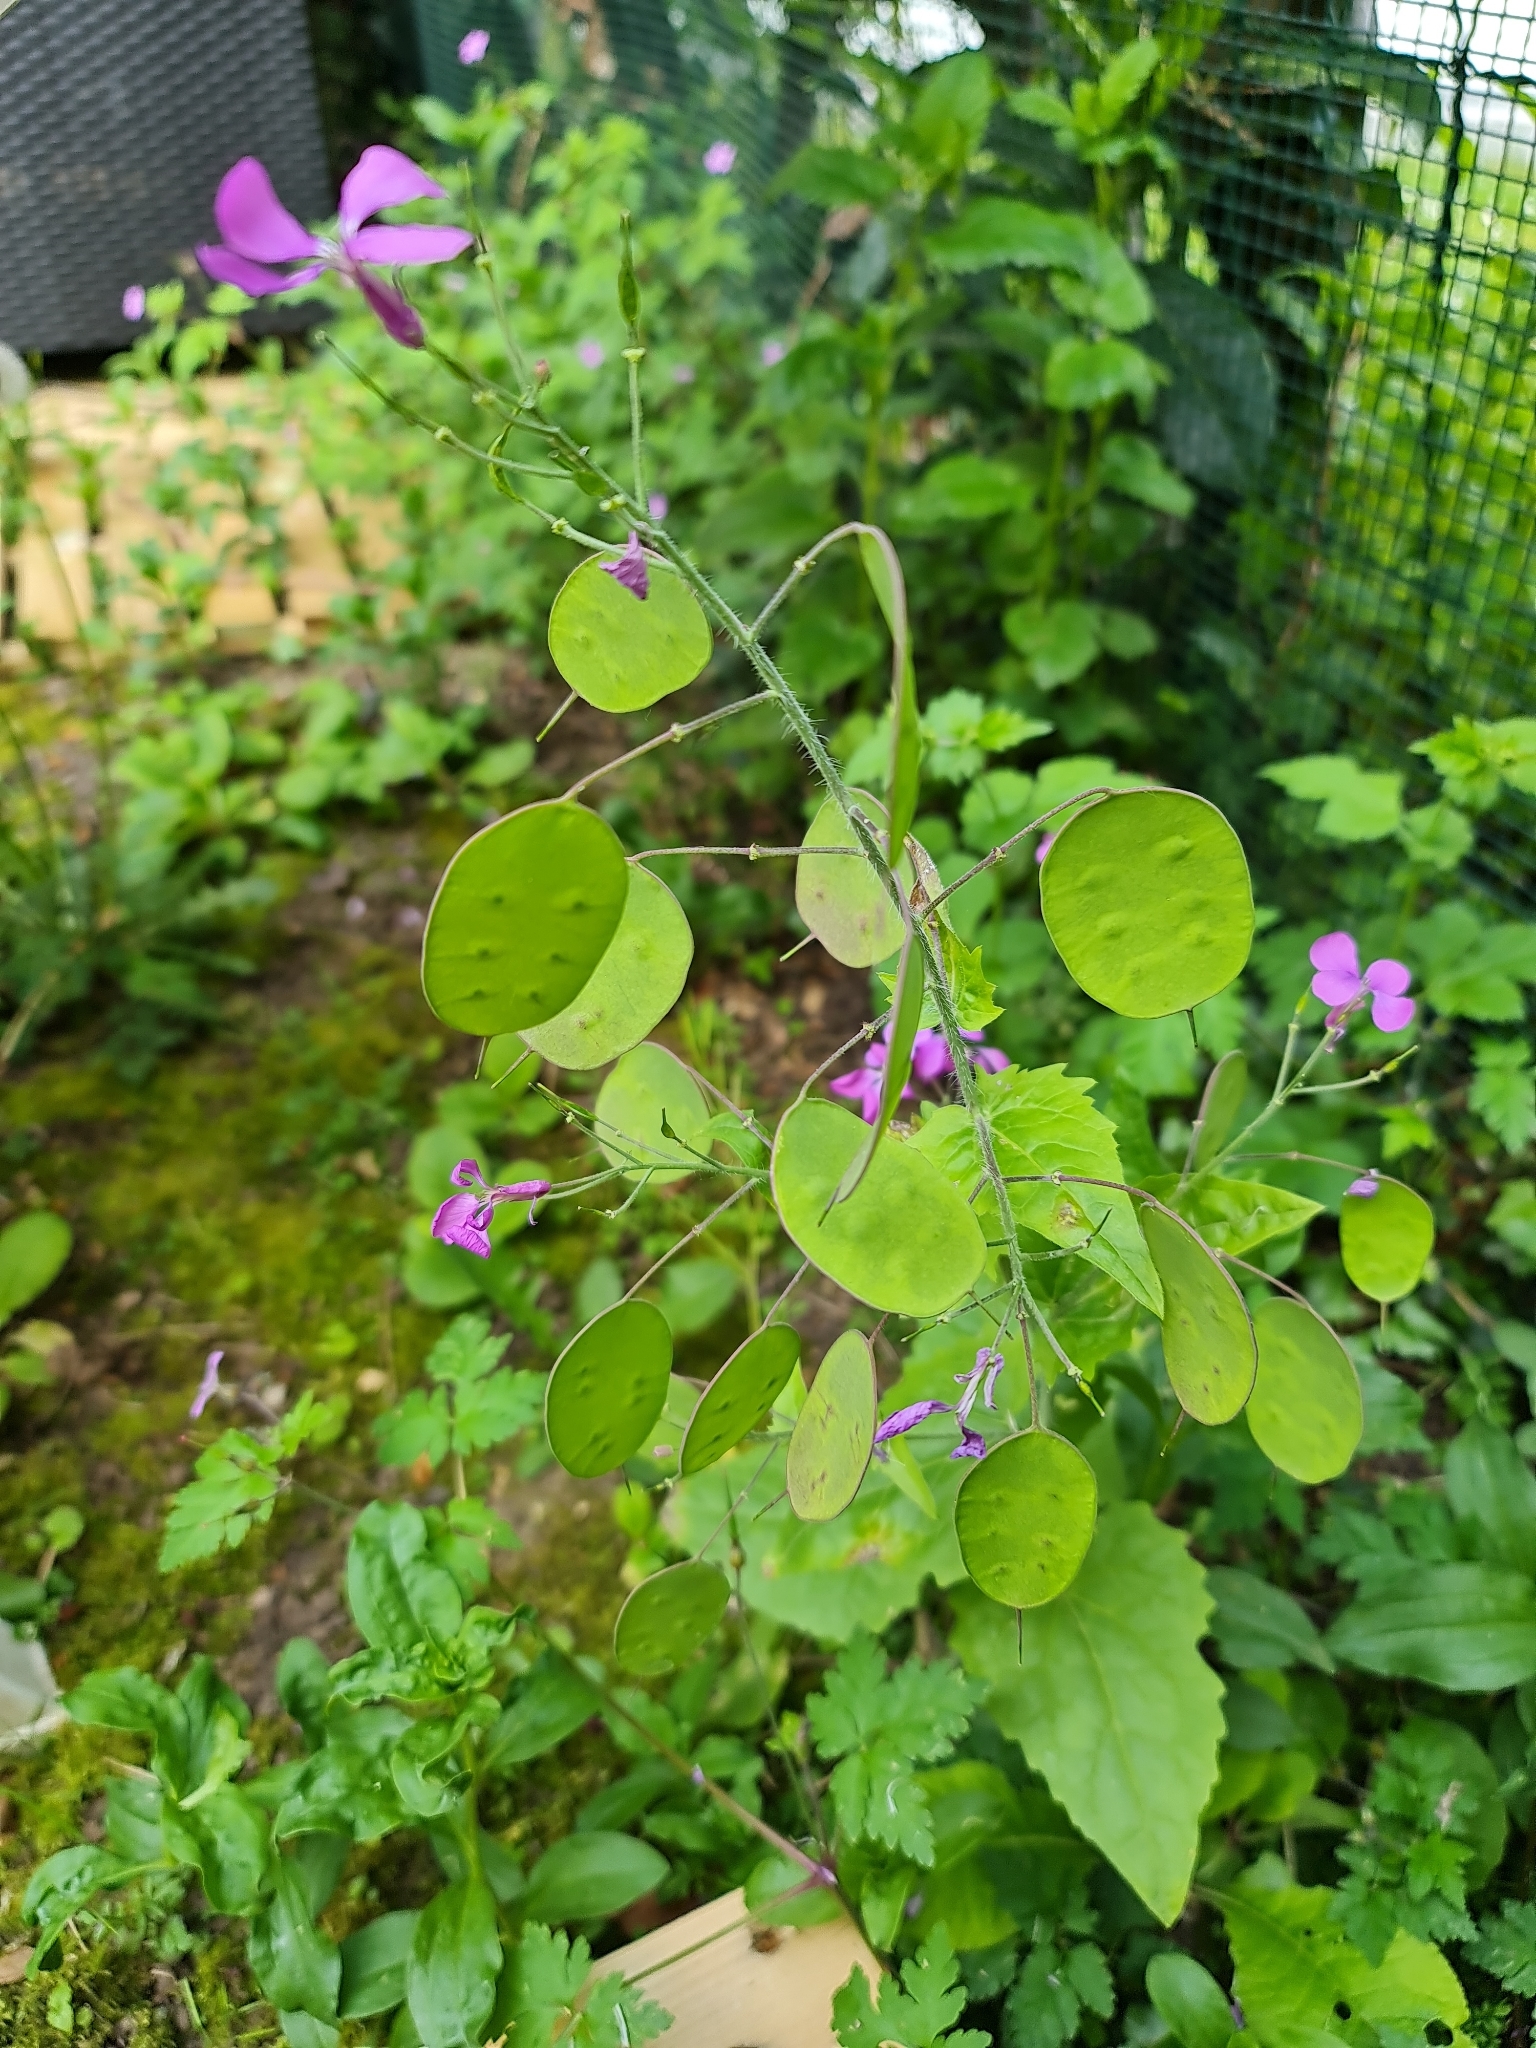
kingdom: Plantae
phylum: Tracheophyta
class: Magnoliopsida
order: Brassicales
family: Brassicaceae
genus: Lunaria
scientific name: Lunaria annua
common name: Honesty
